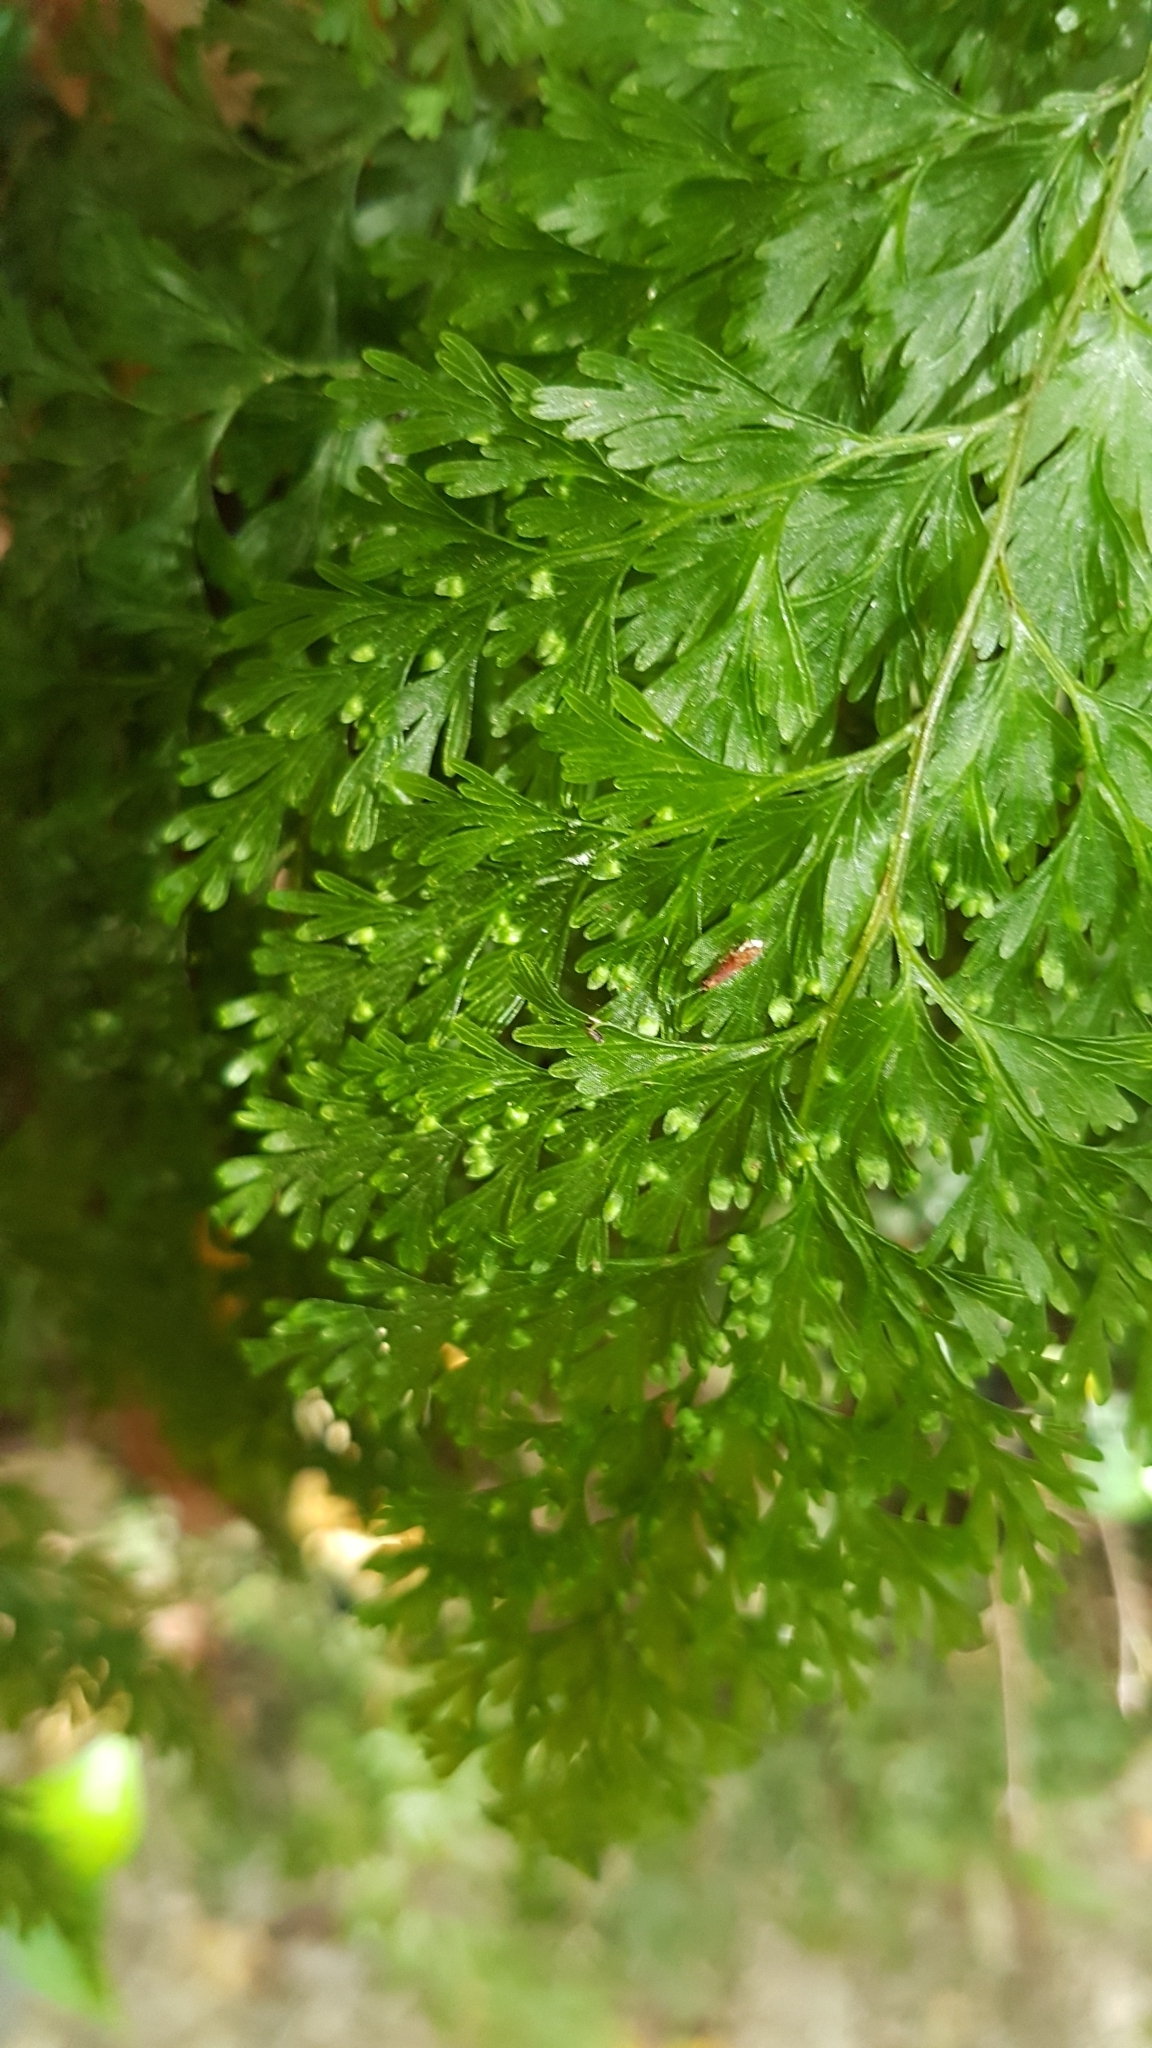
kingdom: Plantae
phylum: Tracheophyta
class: Polypodiopsida
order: Hymenophyllales
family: Hymenophyllaceae
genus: Hymenophyllum
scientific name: Hymenophyllum demissum
